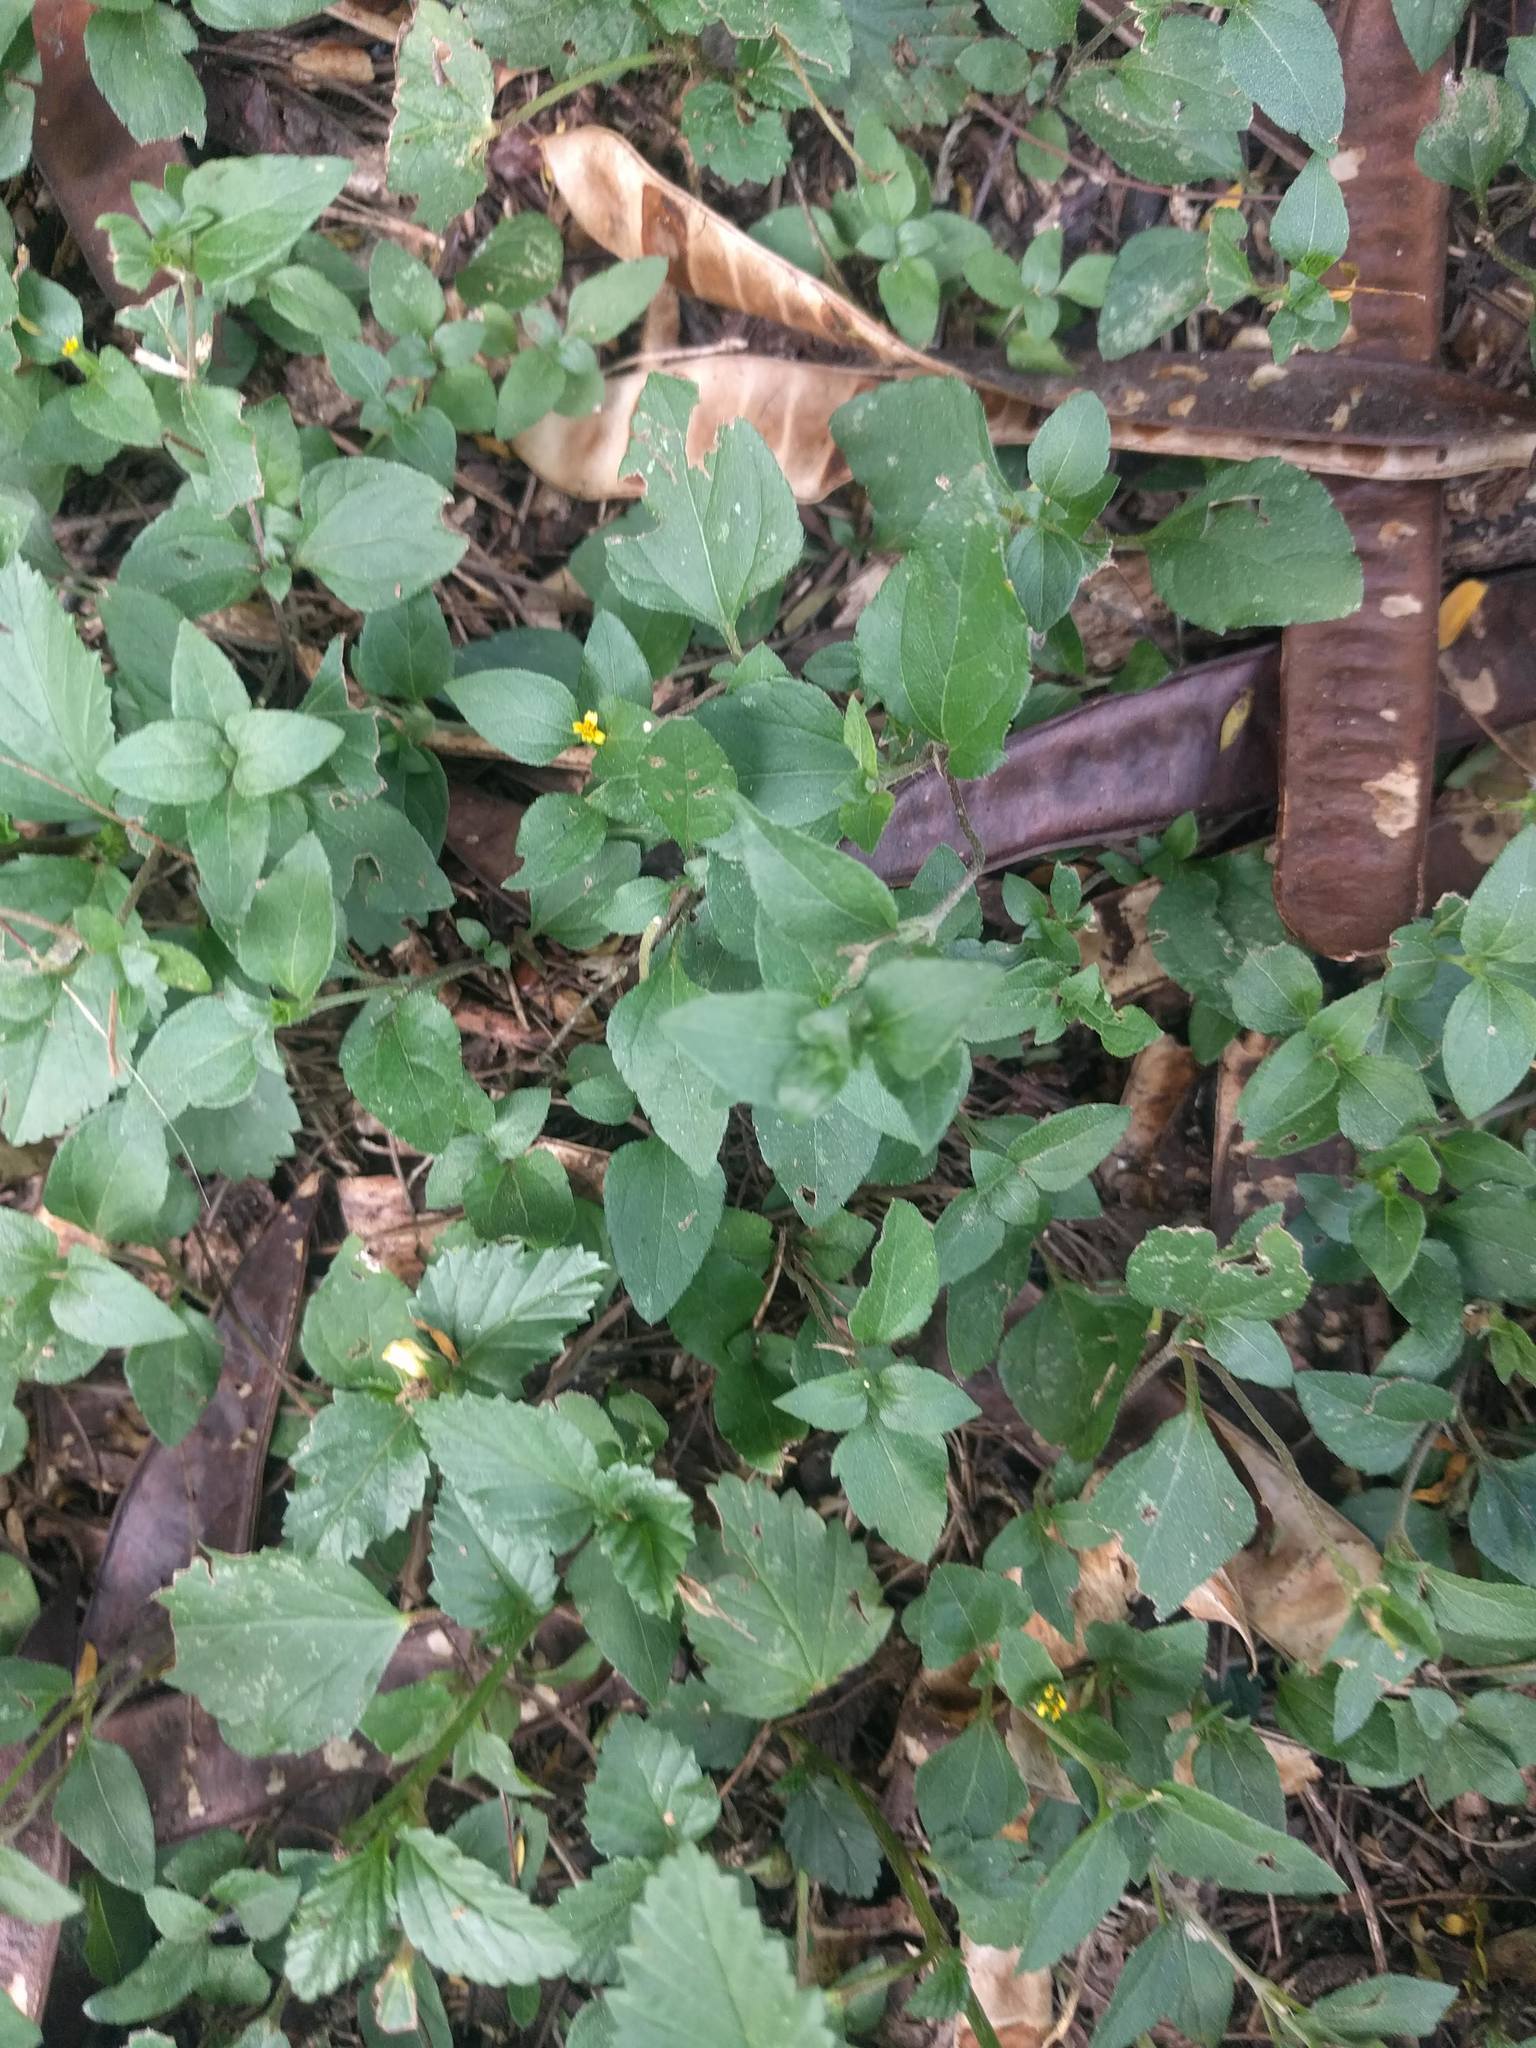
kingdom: Plantae
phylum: Tracheophyta
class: Magnoliopsida
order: Asterales
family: Asteraceae
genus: Calyptocarpus
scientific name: Calyptocarpus vialis
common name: Straggler daisy
